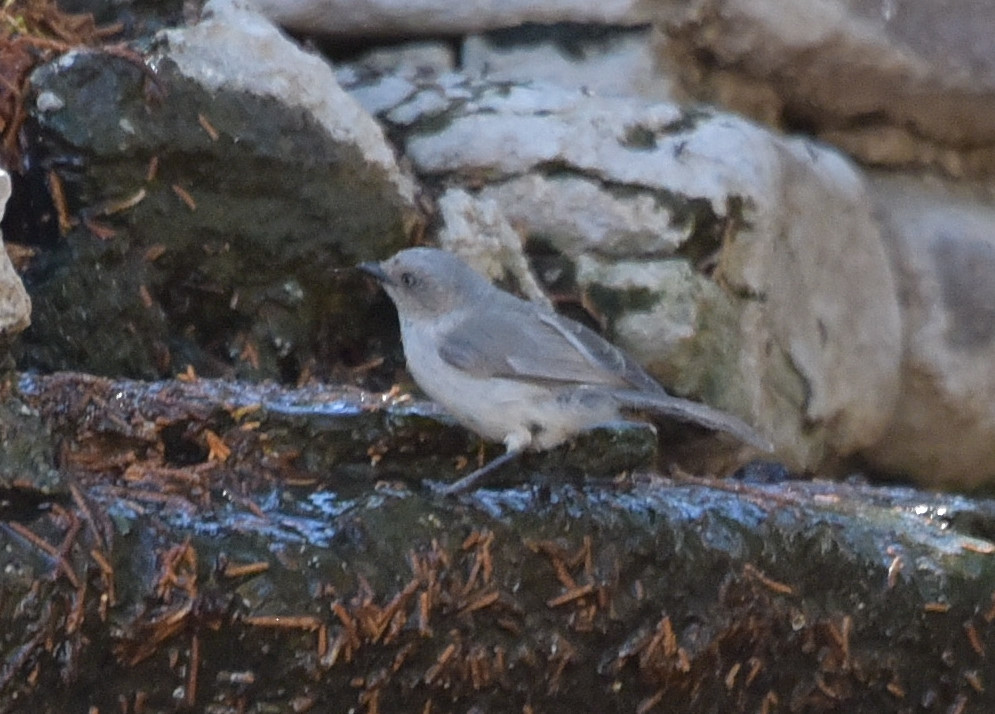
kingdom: Animalia
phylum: Chordata
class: Aves
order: Passeriformes
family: Aegithalidae
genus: Psaltriparus
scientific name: Psaltriparus minimus
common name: American bushtit
